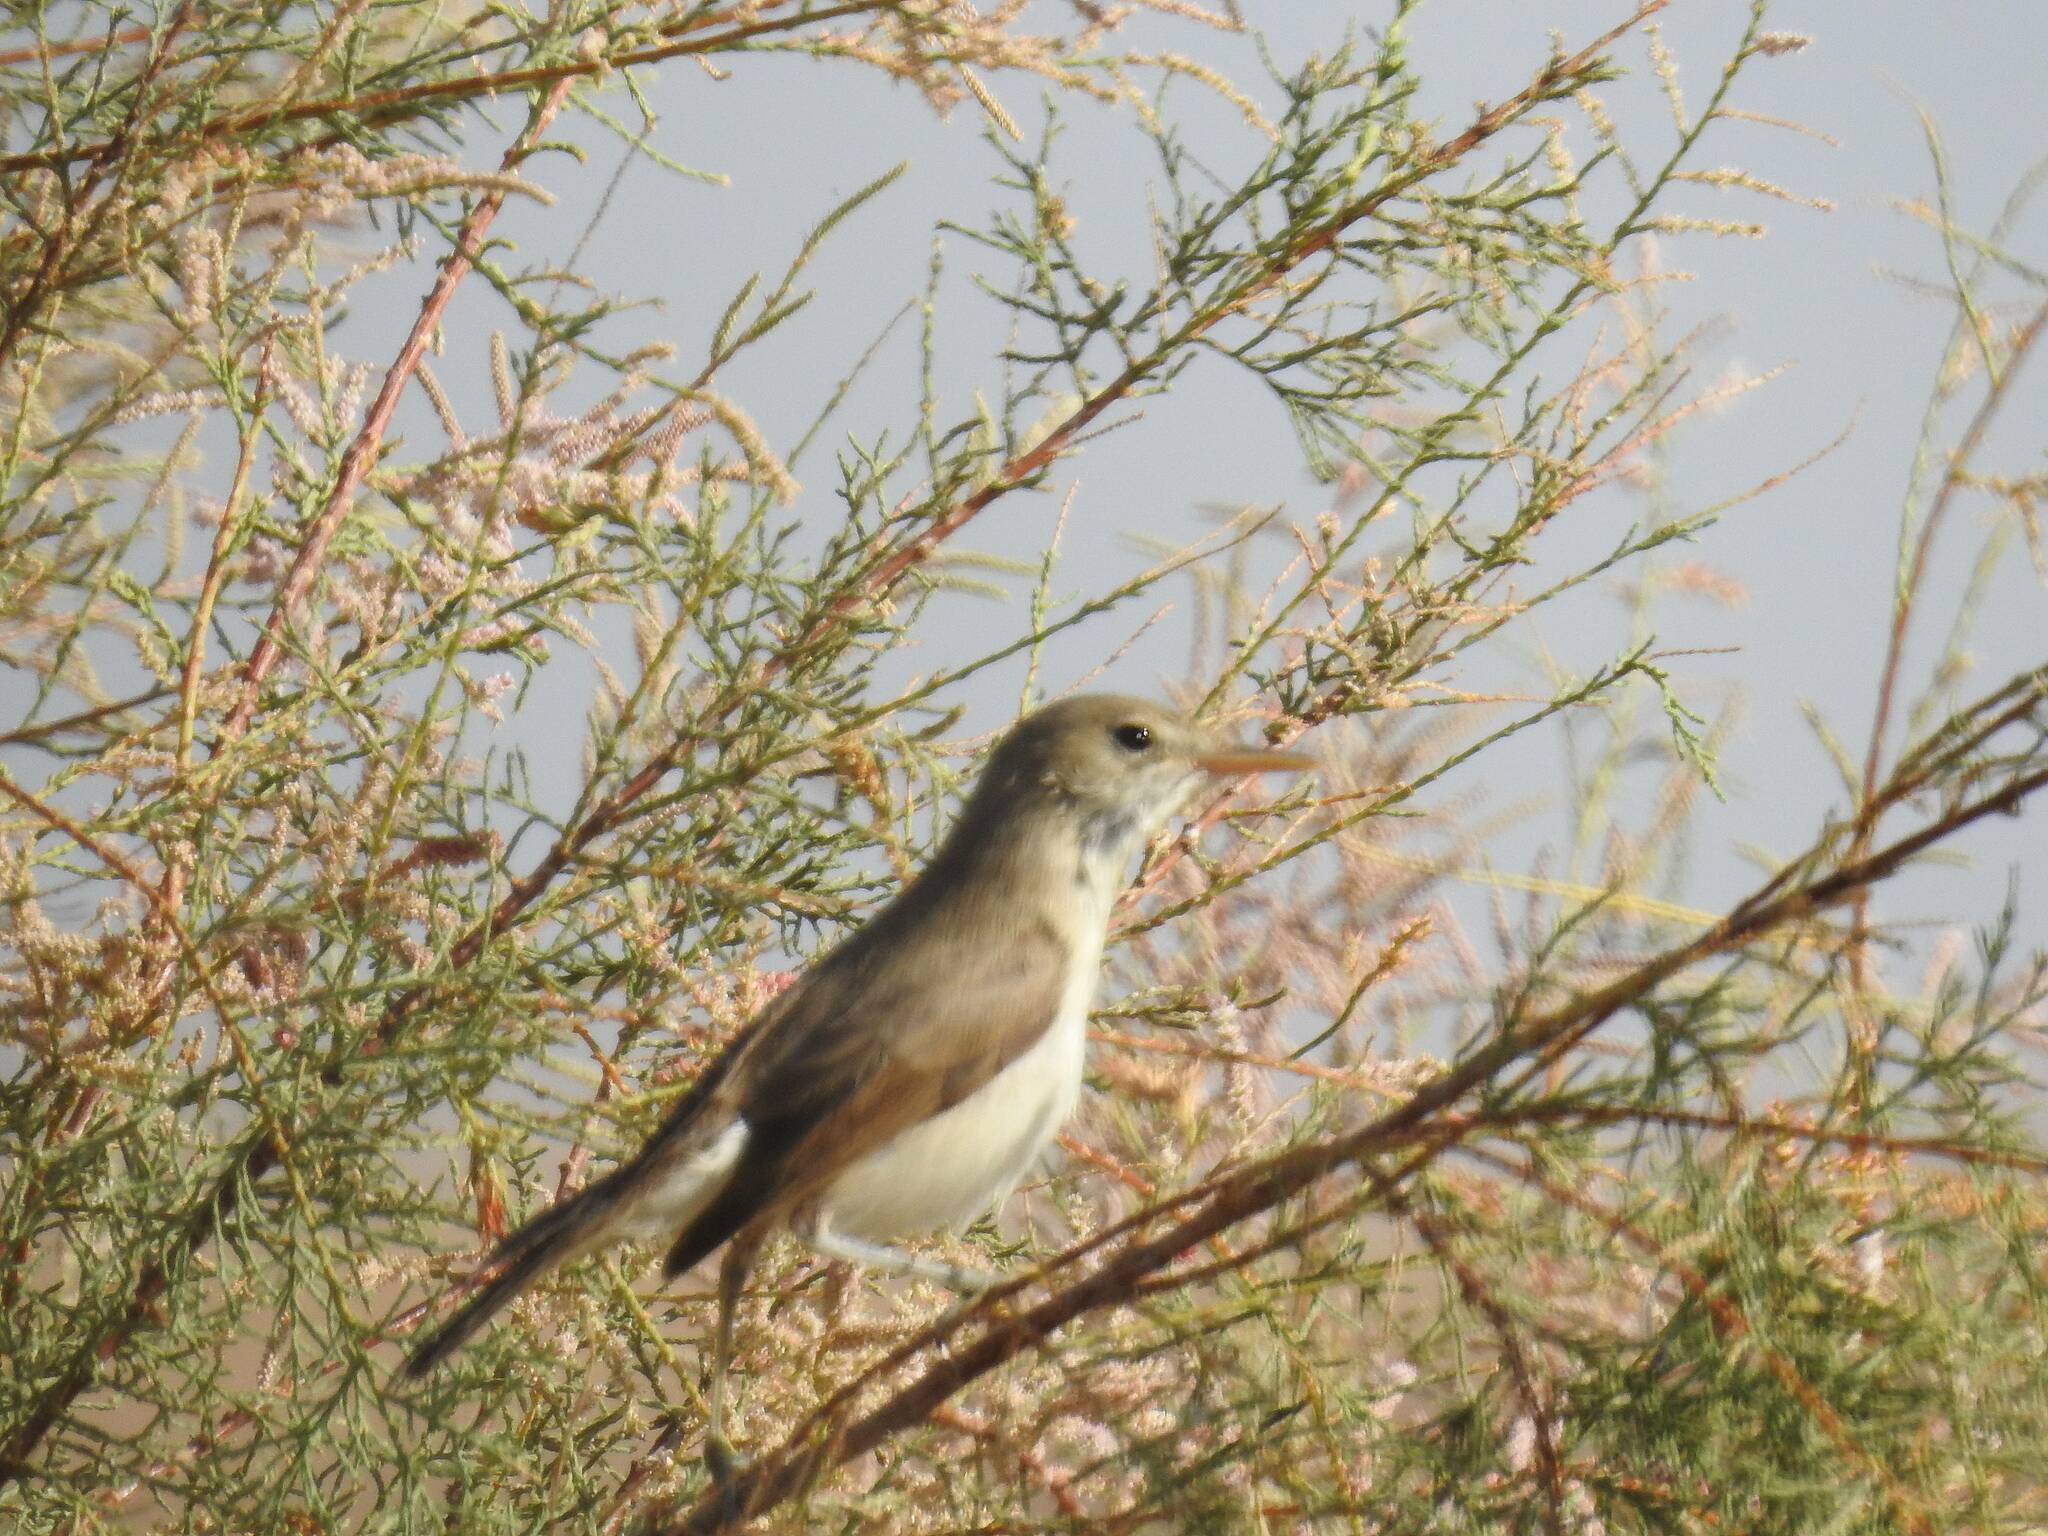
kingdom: Animalia
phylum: Chordata
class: Aves
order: Passeriformes
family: Acrocephalidae
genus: Iduna
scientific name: Iduna pallida
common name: Eastern olivaceous warbler
